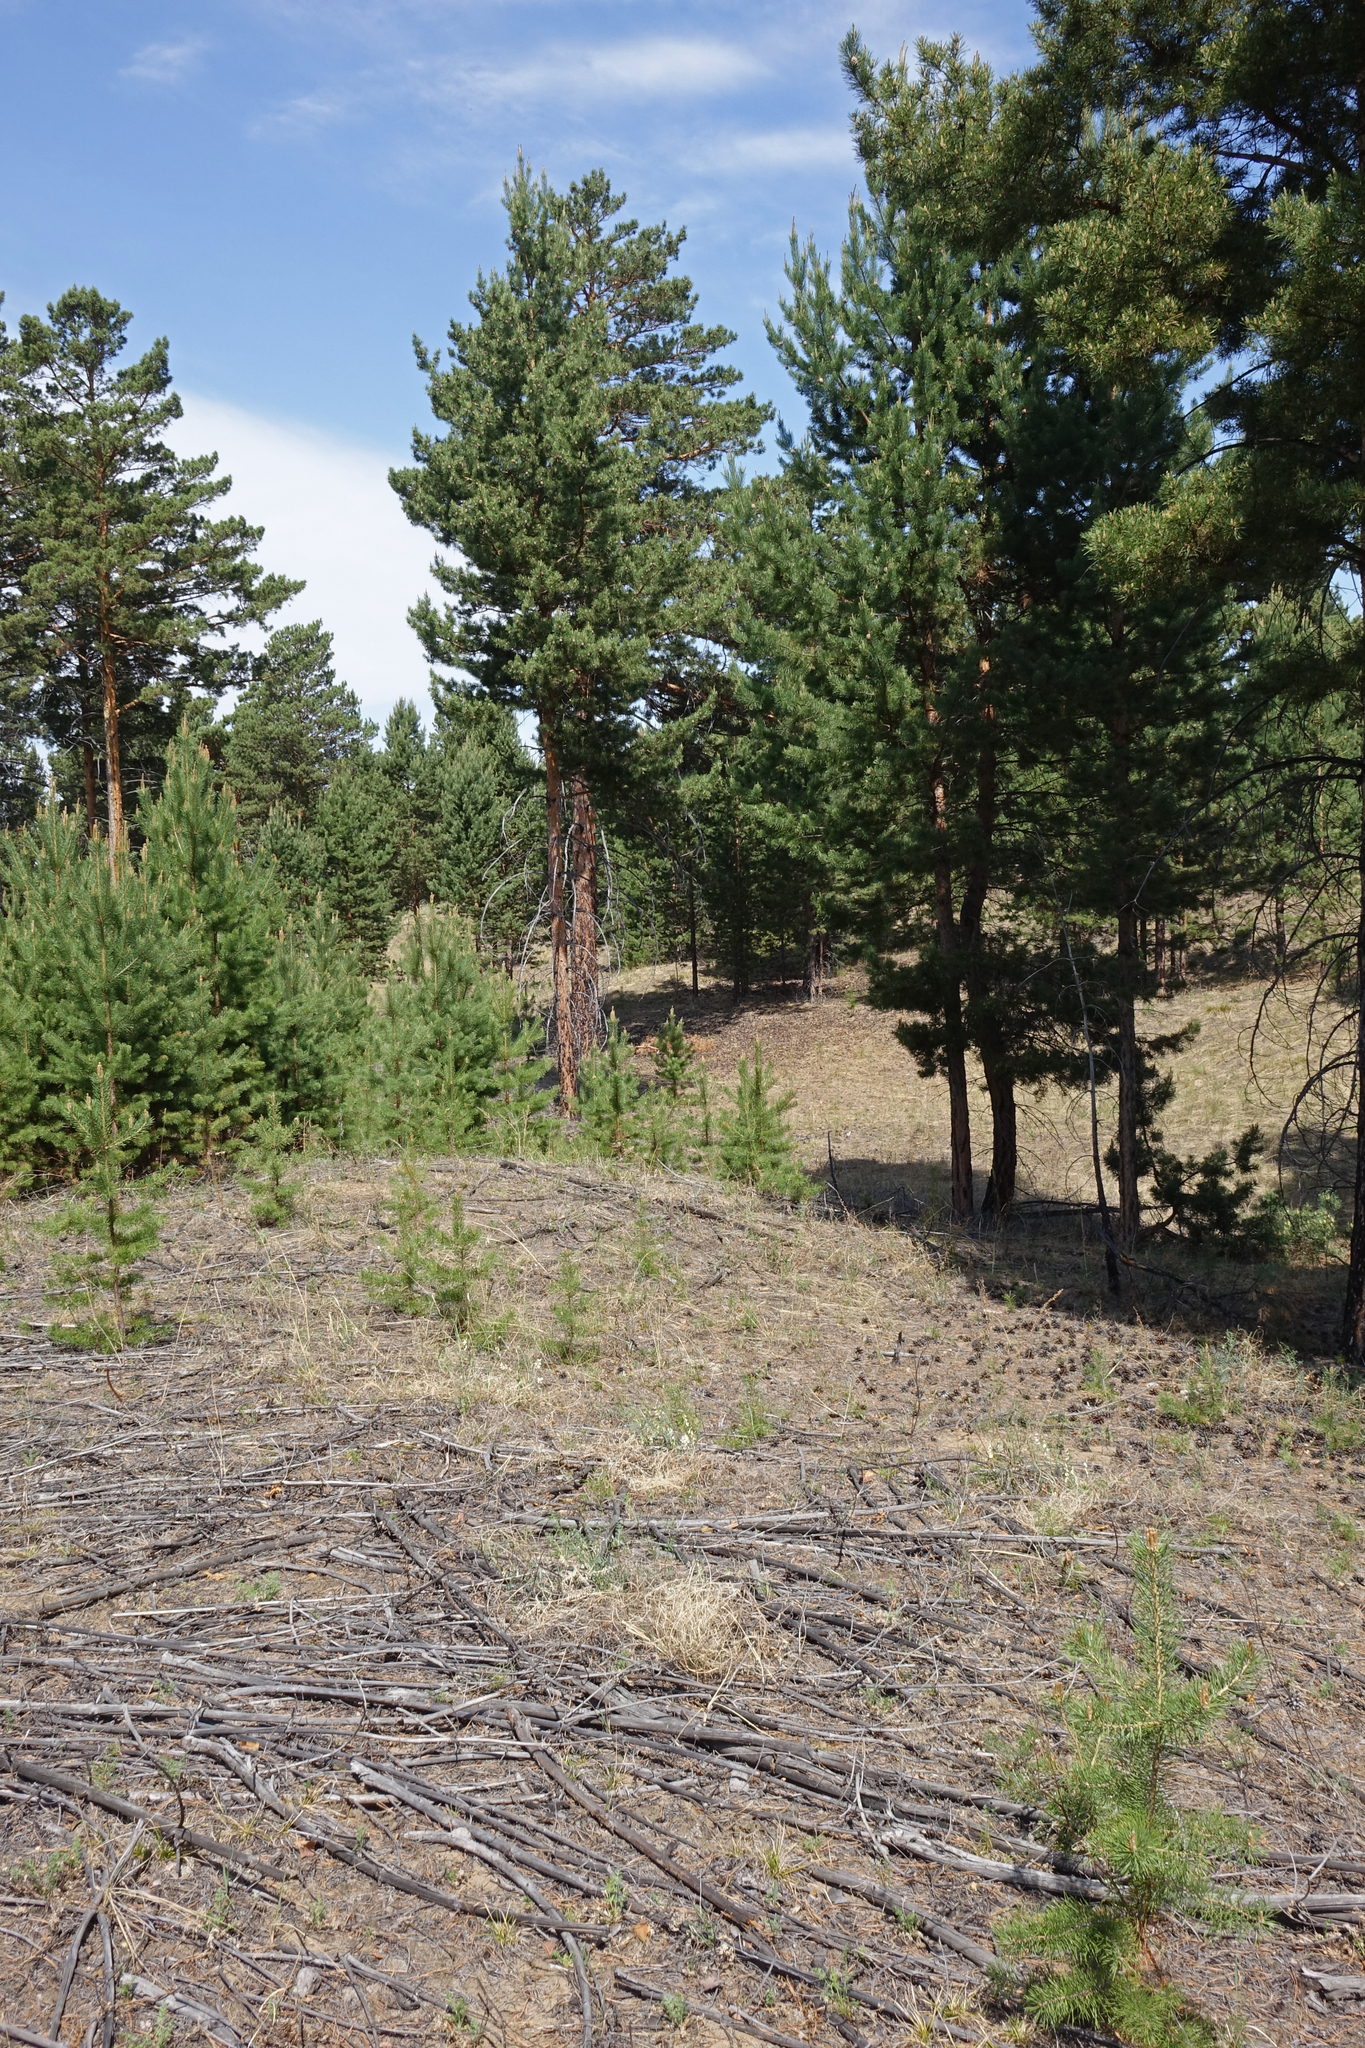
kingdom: Plantae
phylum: Tracheophyta
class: Pinopsida
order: Pinales
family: Pinaceae
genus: Pinus
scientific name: Pinus sylvestris
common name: Scots pine
